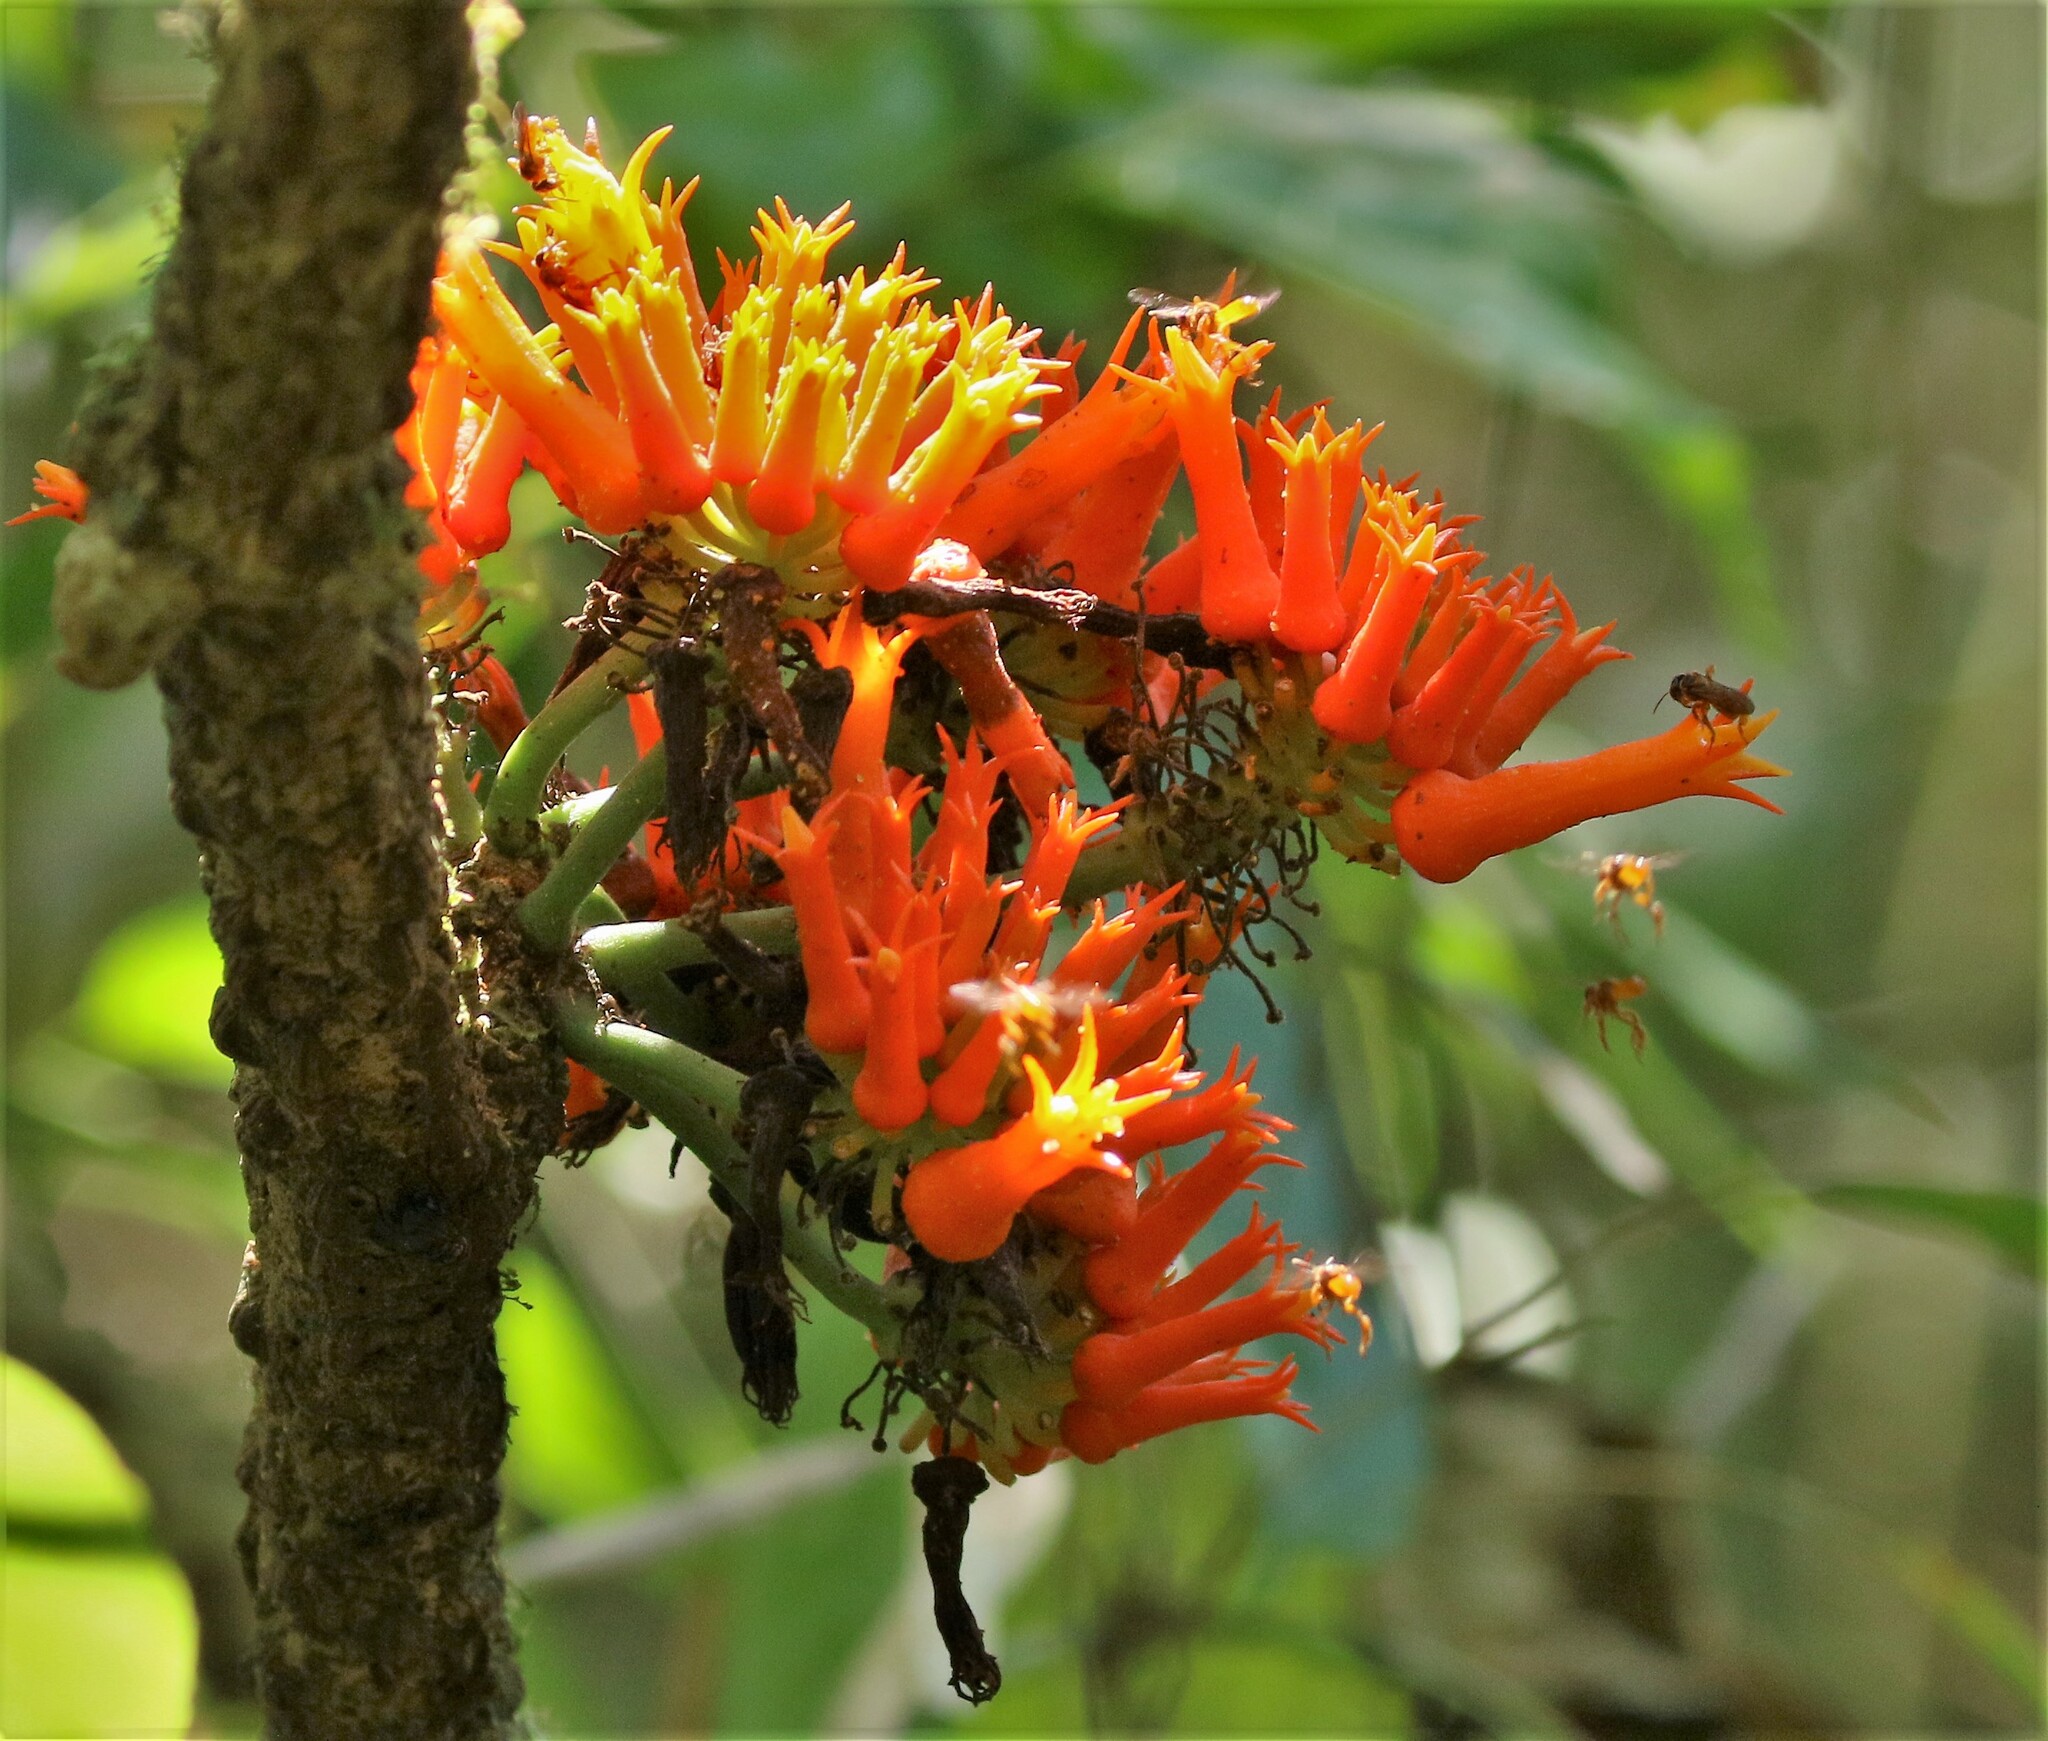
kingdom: Plantae
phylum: Tracheophyta
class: Magnoliopsida
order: Cucurbitales
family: Cucurbitaceae
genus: Gurania
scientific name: Gurania tubulosa
